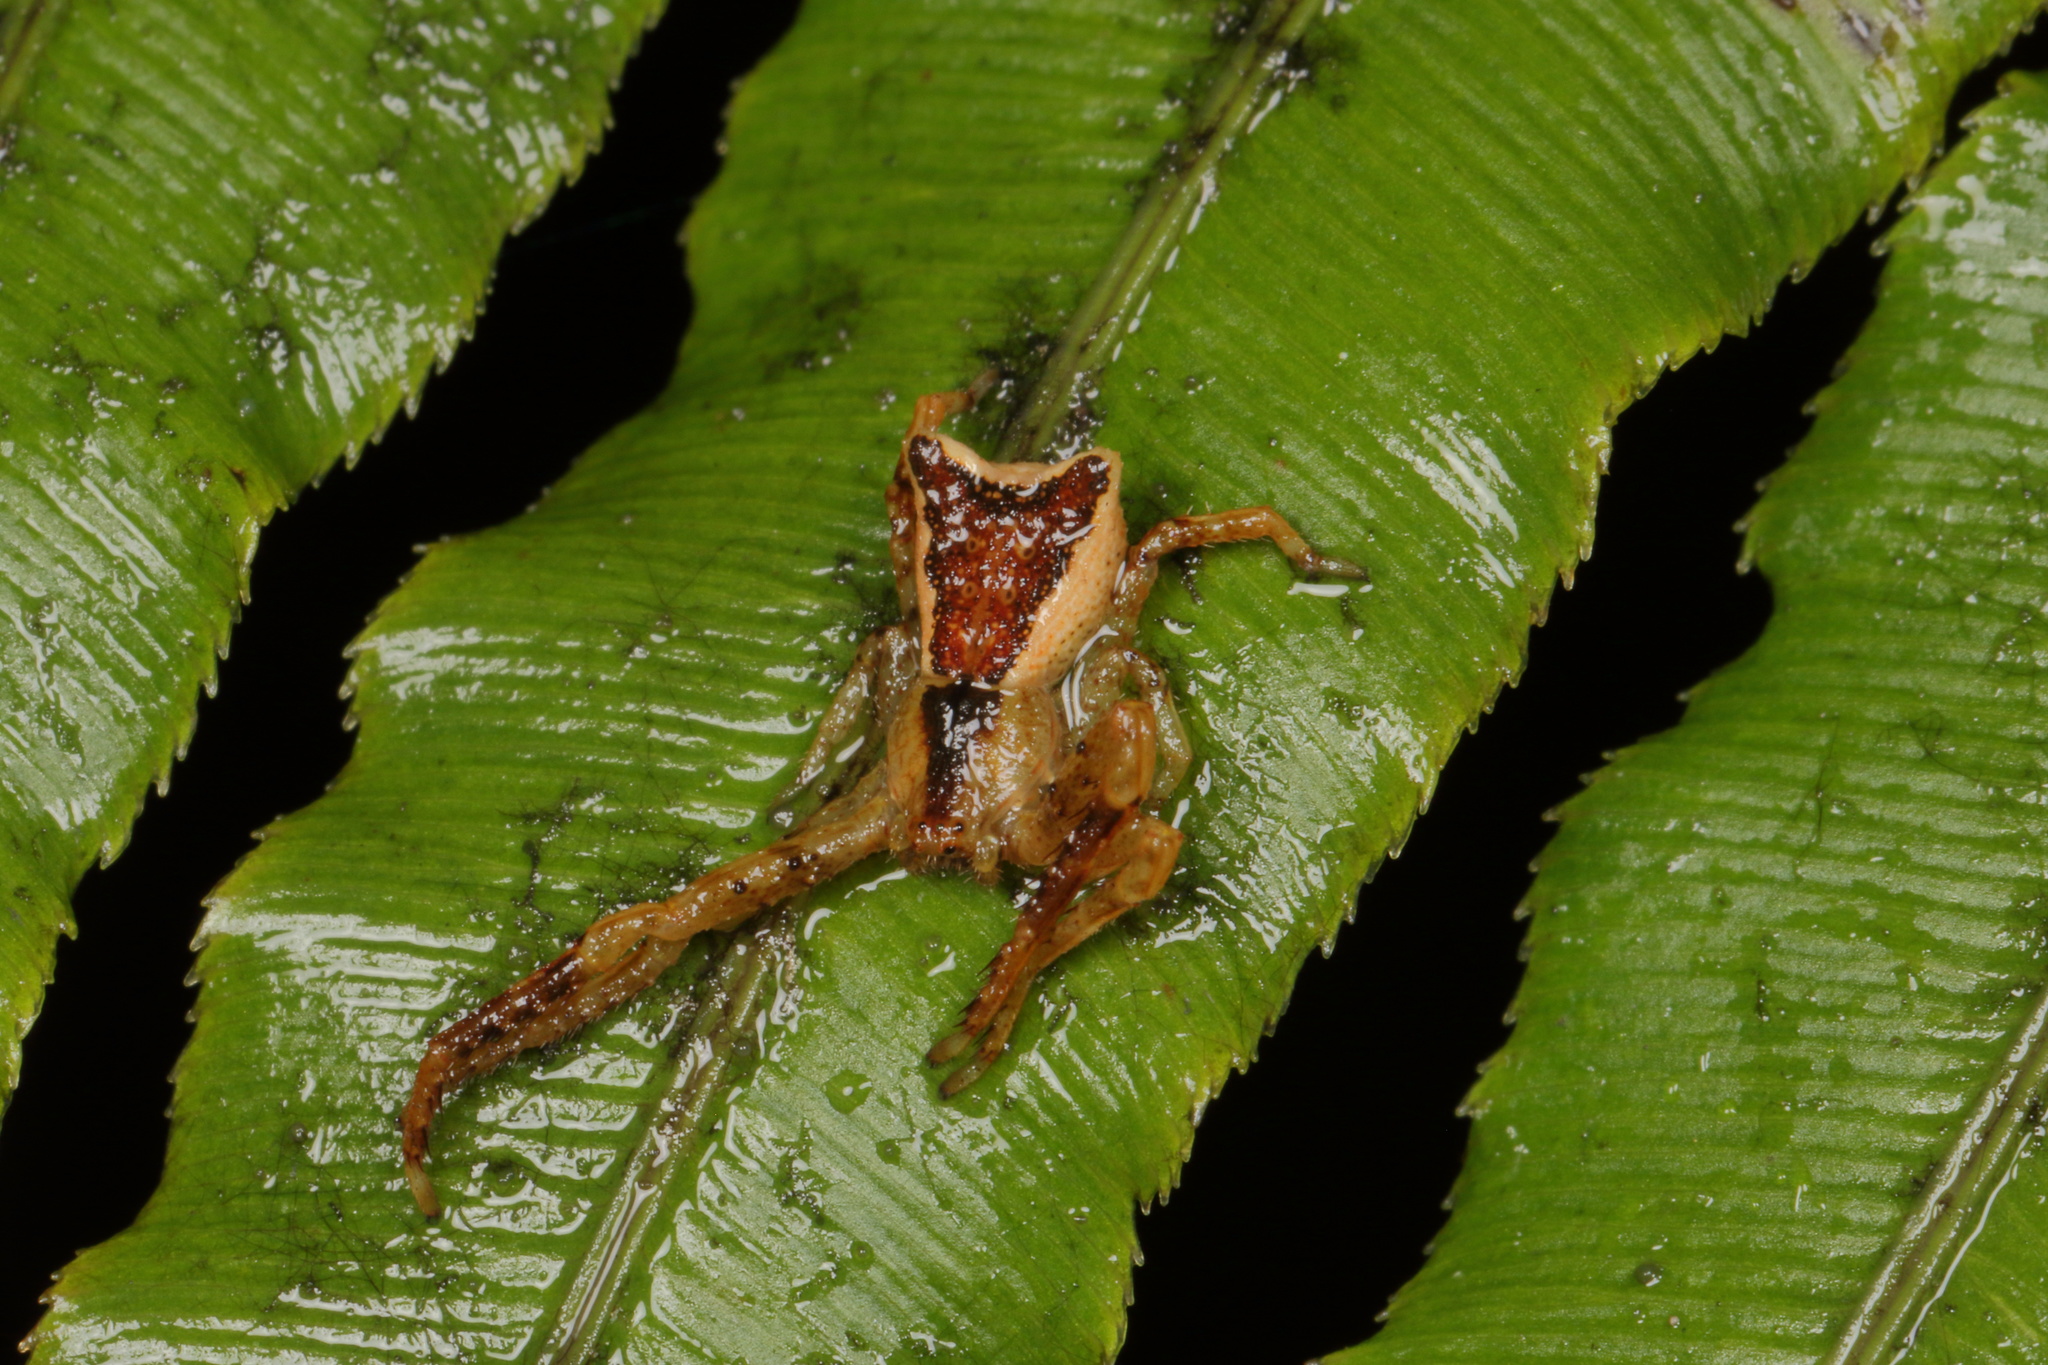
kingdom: Animalia
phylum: Arthropoda
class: Arachnida
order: Araneae
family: Thomisidae
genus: Sidymella
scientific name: Sidymella angularis
